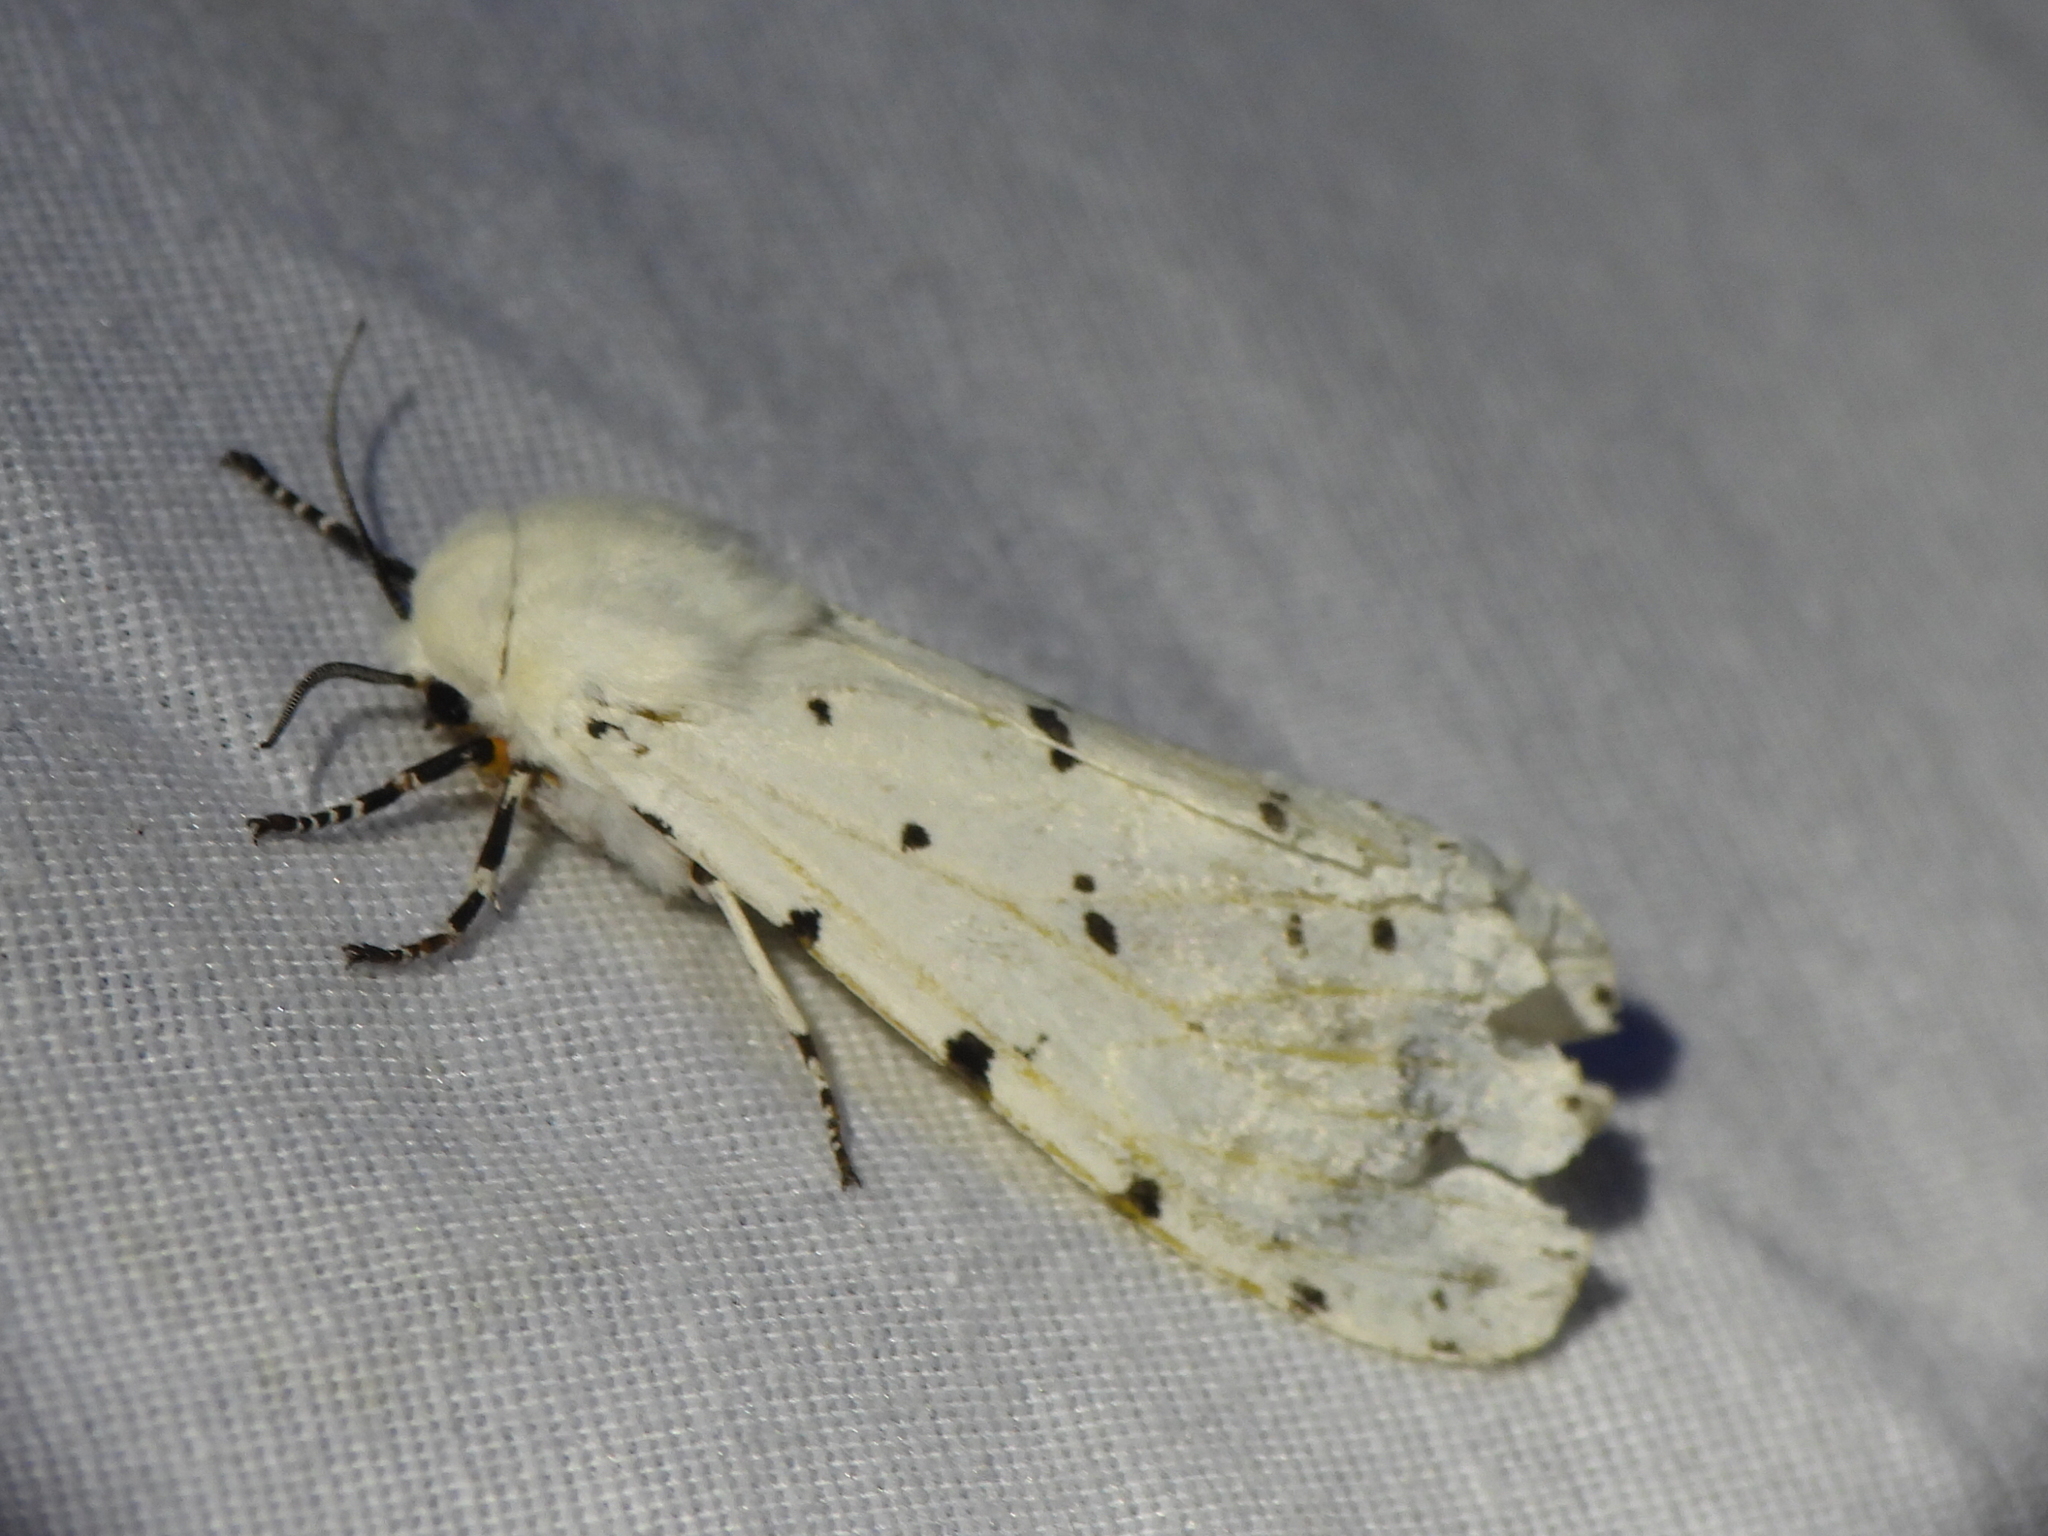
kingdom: Animalia
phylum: Arthropoda
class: Insecta
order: Lepidoptera
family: Erebidae
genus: Estigmene
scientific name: Estigmene acrea
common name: Salt marsh moth
